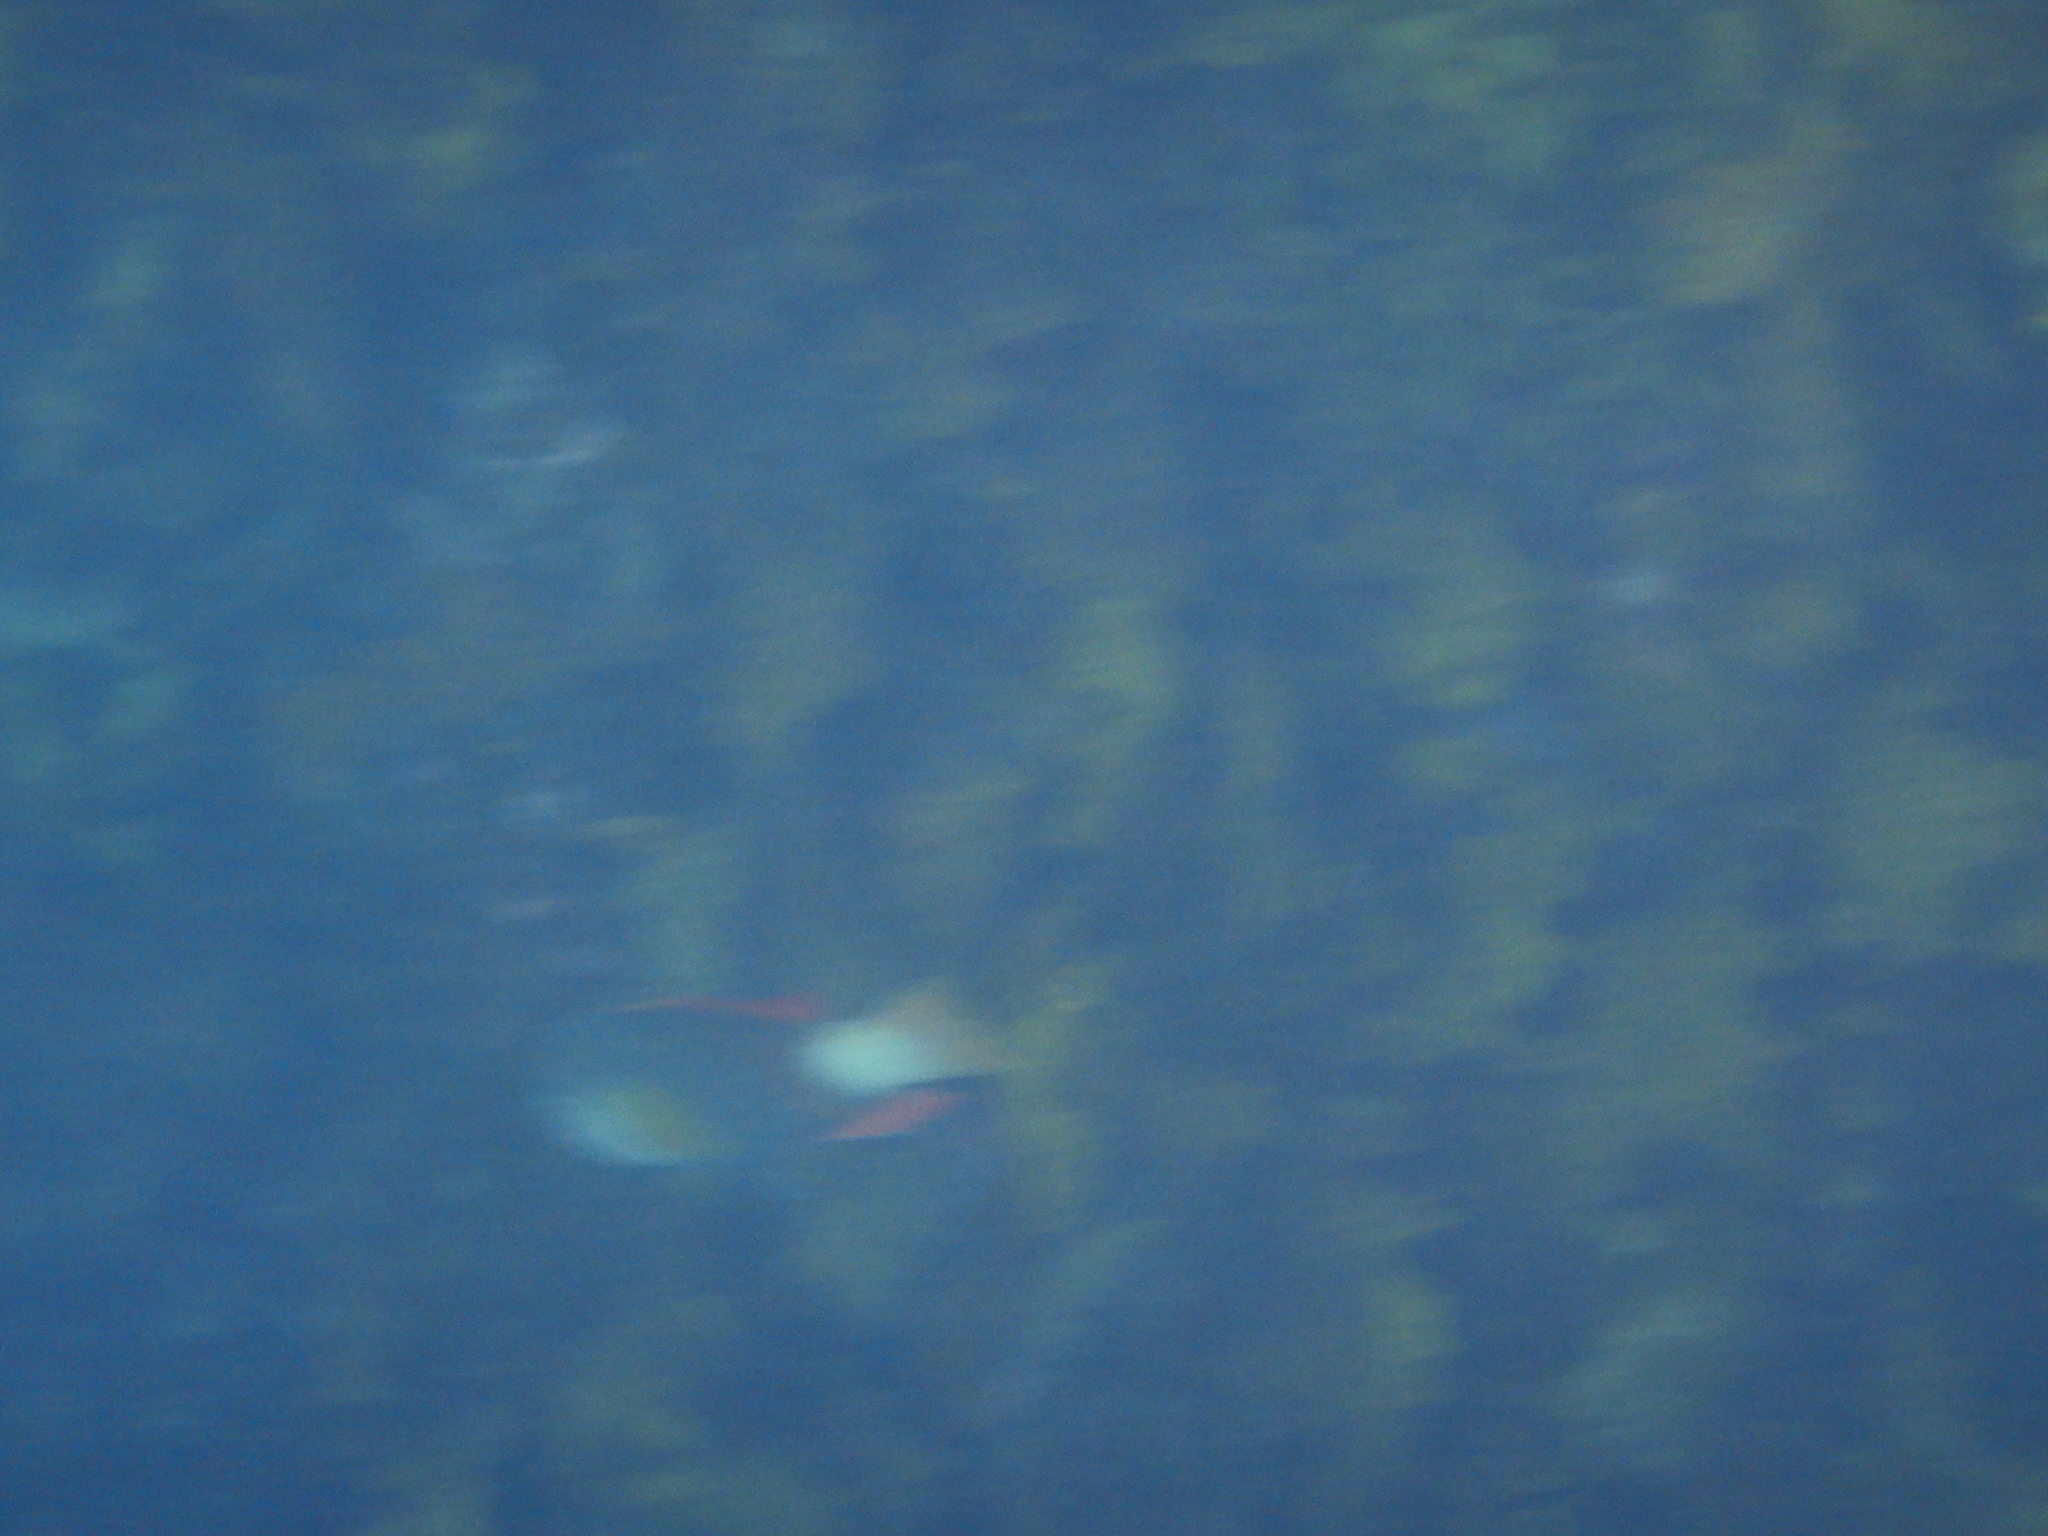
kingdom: Animalia
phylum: Chordata
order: Perciformes
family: Labridae
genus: Notolabrus
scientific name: Notolabrus gymnogenis
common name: Crimson banded wrasse
